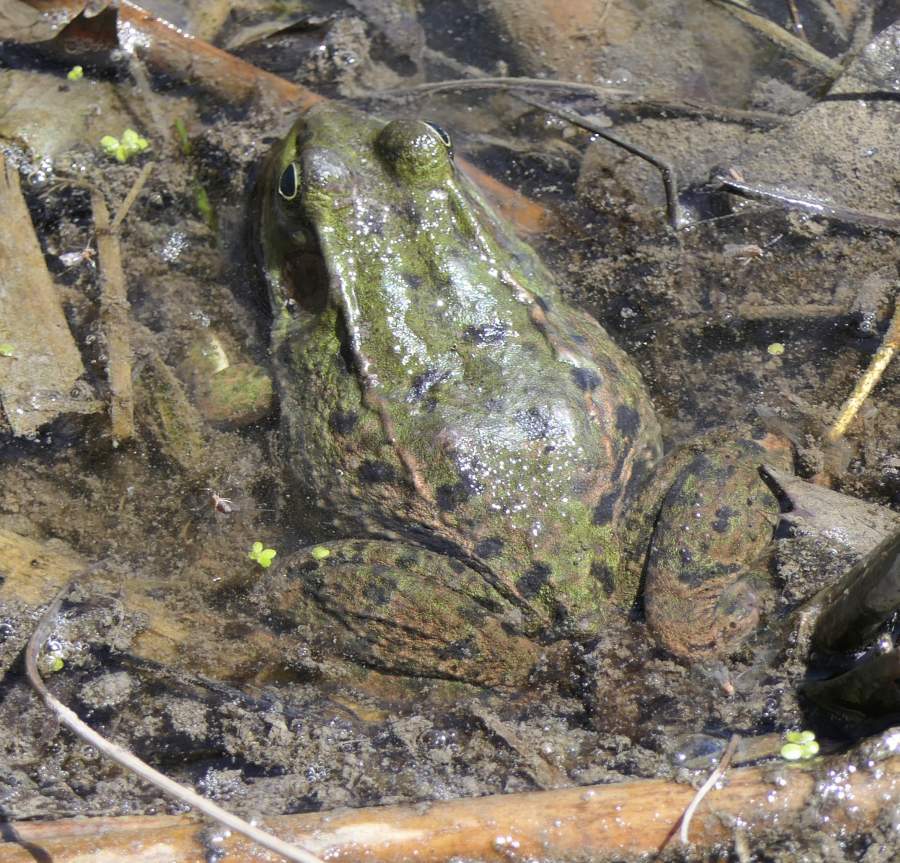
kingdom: Animalia
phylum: Chordata
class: Amphibia
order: Anura
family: Ranidae
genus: Lithobates
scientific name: Lithobates clamitans
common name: Green frog
